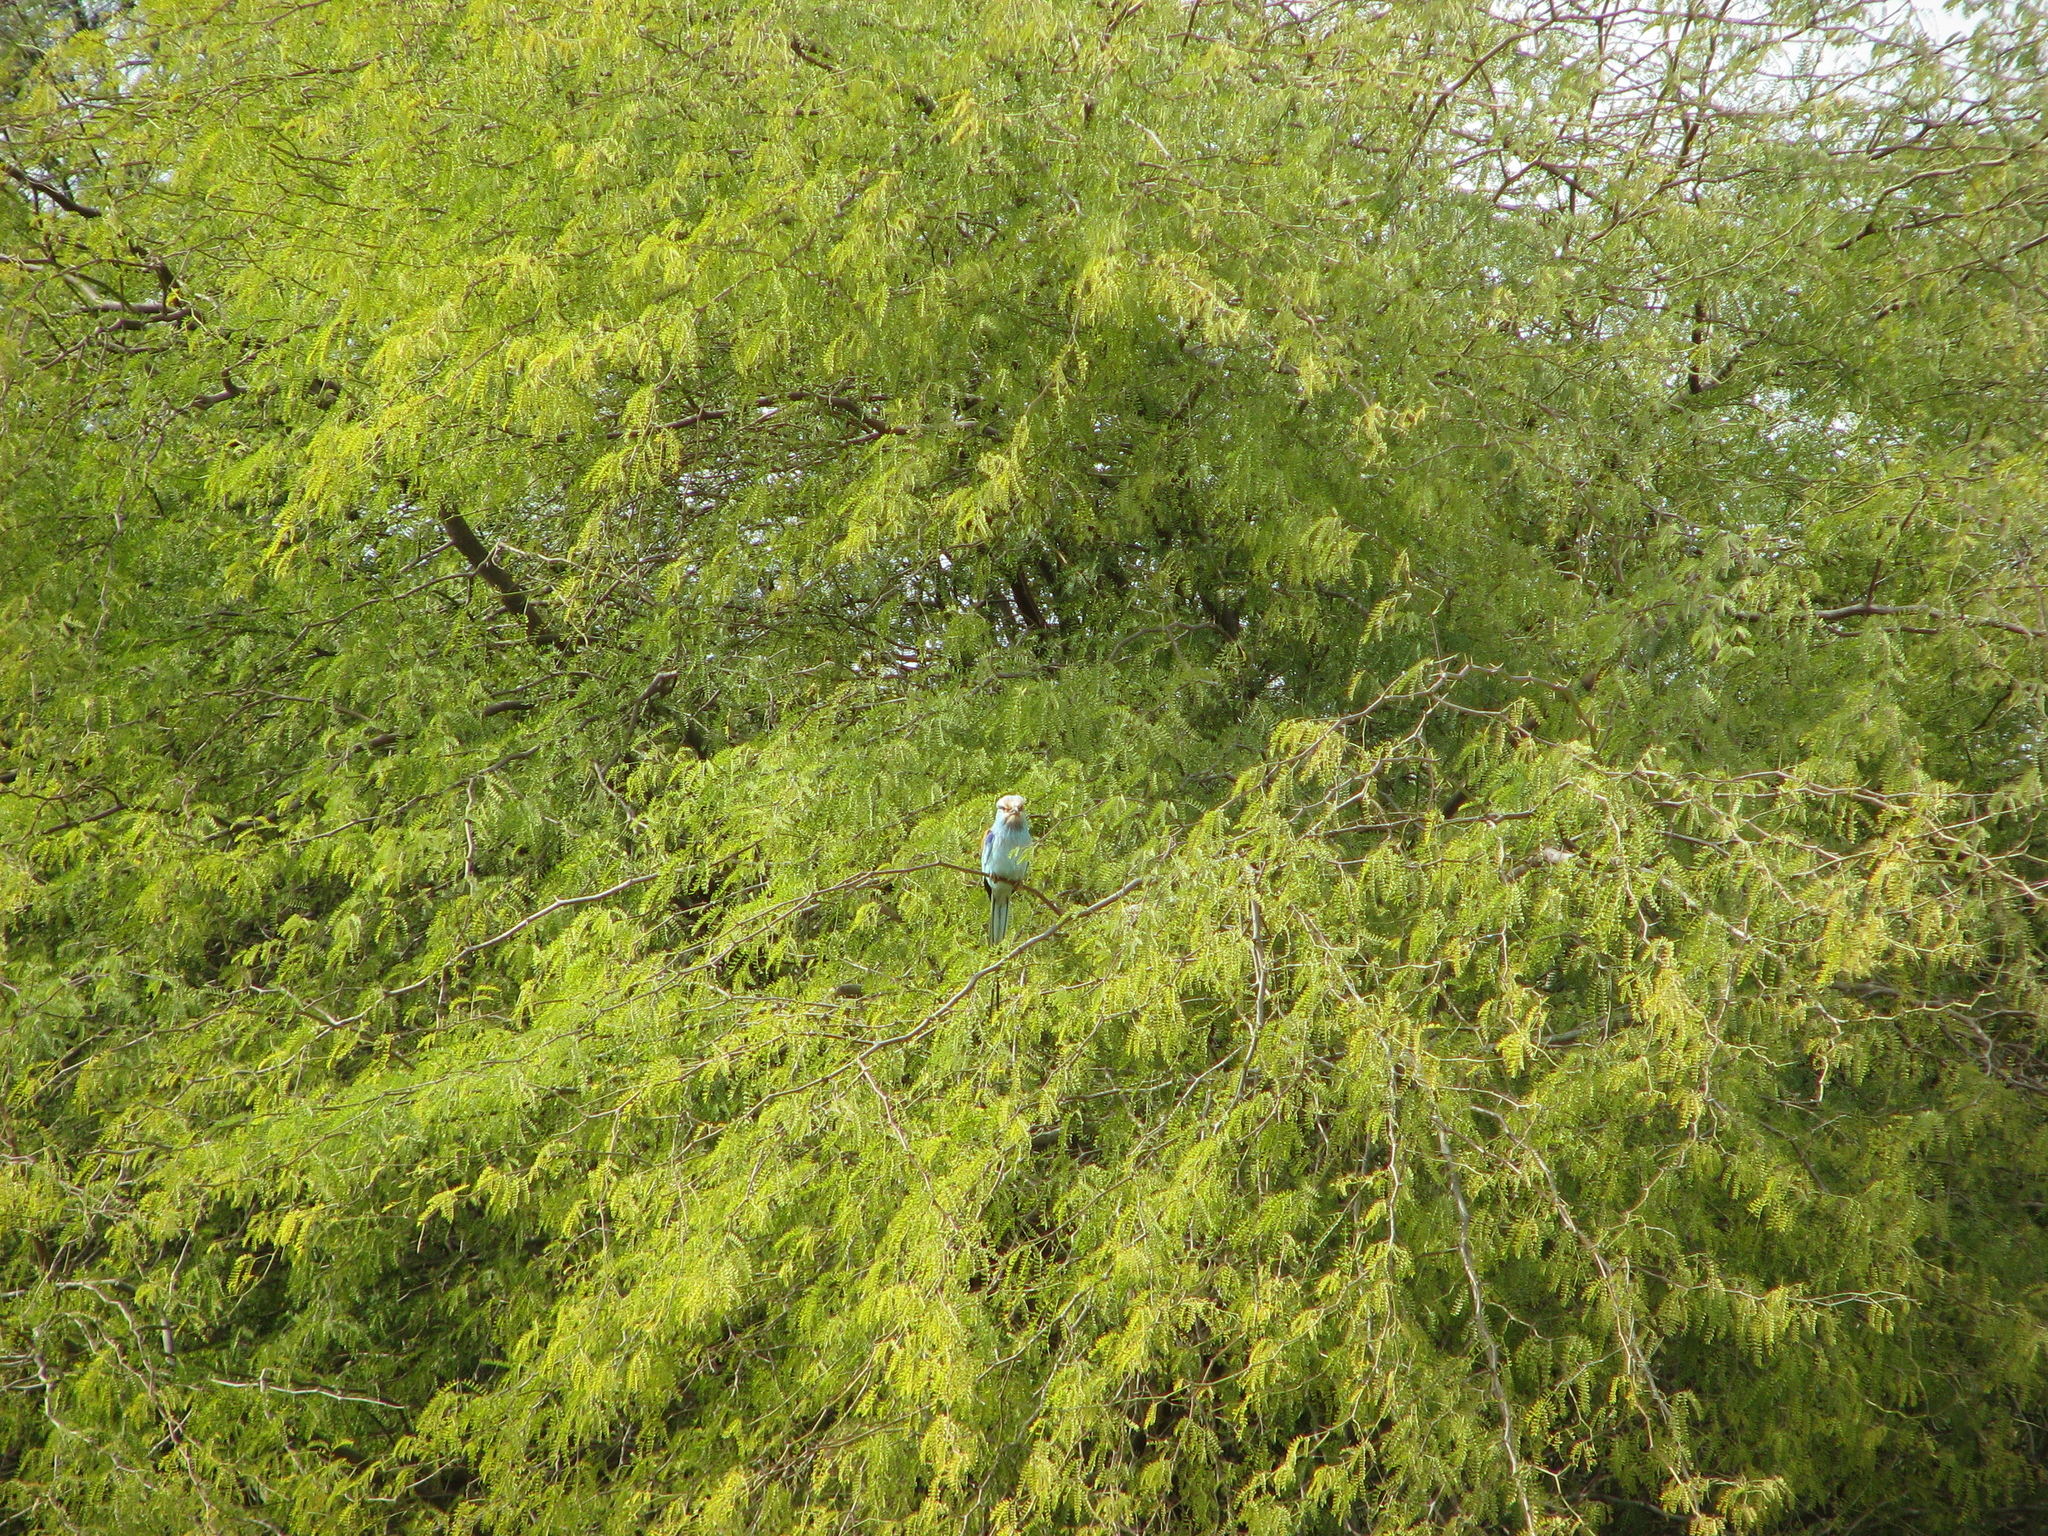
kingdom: Animalia
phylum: Chordata
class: Aves
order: Coraciiformes
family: Coraciidae
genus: Coracias
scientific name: Coracias abyssinicus
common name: Abyssinian roller
